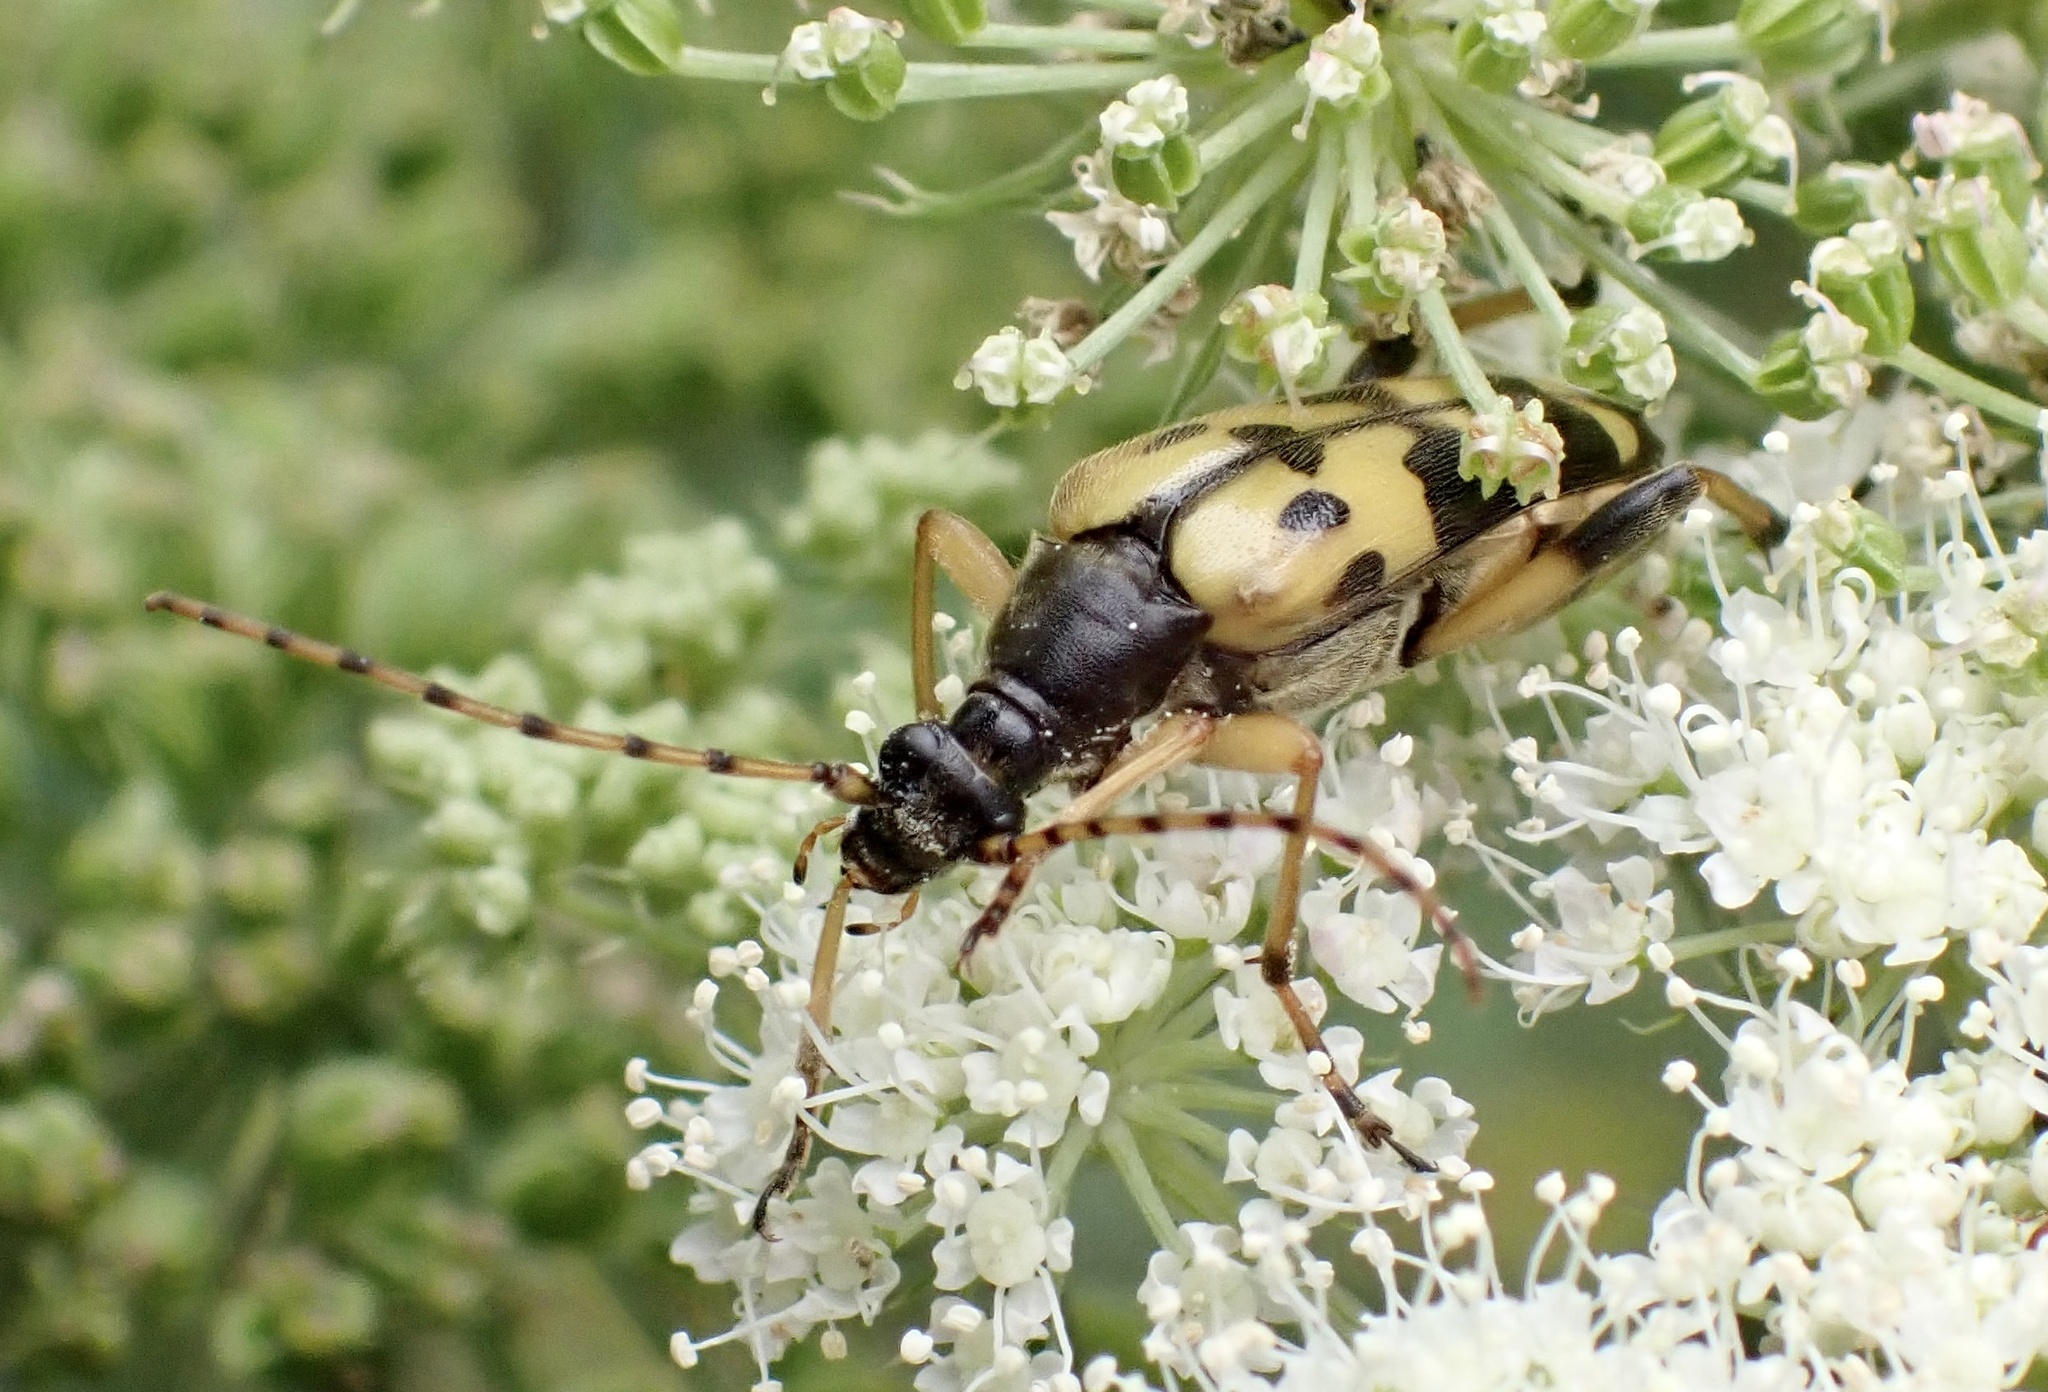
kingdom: Animalia
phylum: Arthropoda
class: Insecta
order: Coleoptera
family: Cerambycidae
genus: Rutpela
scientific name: Rutpela maculata
